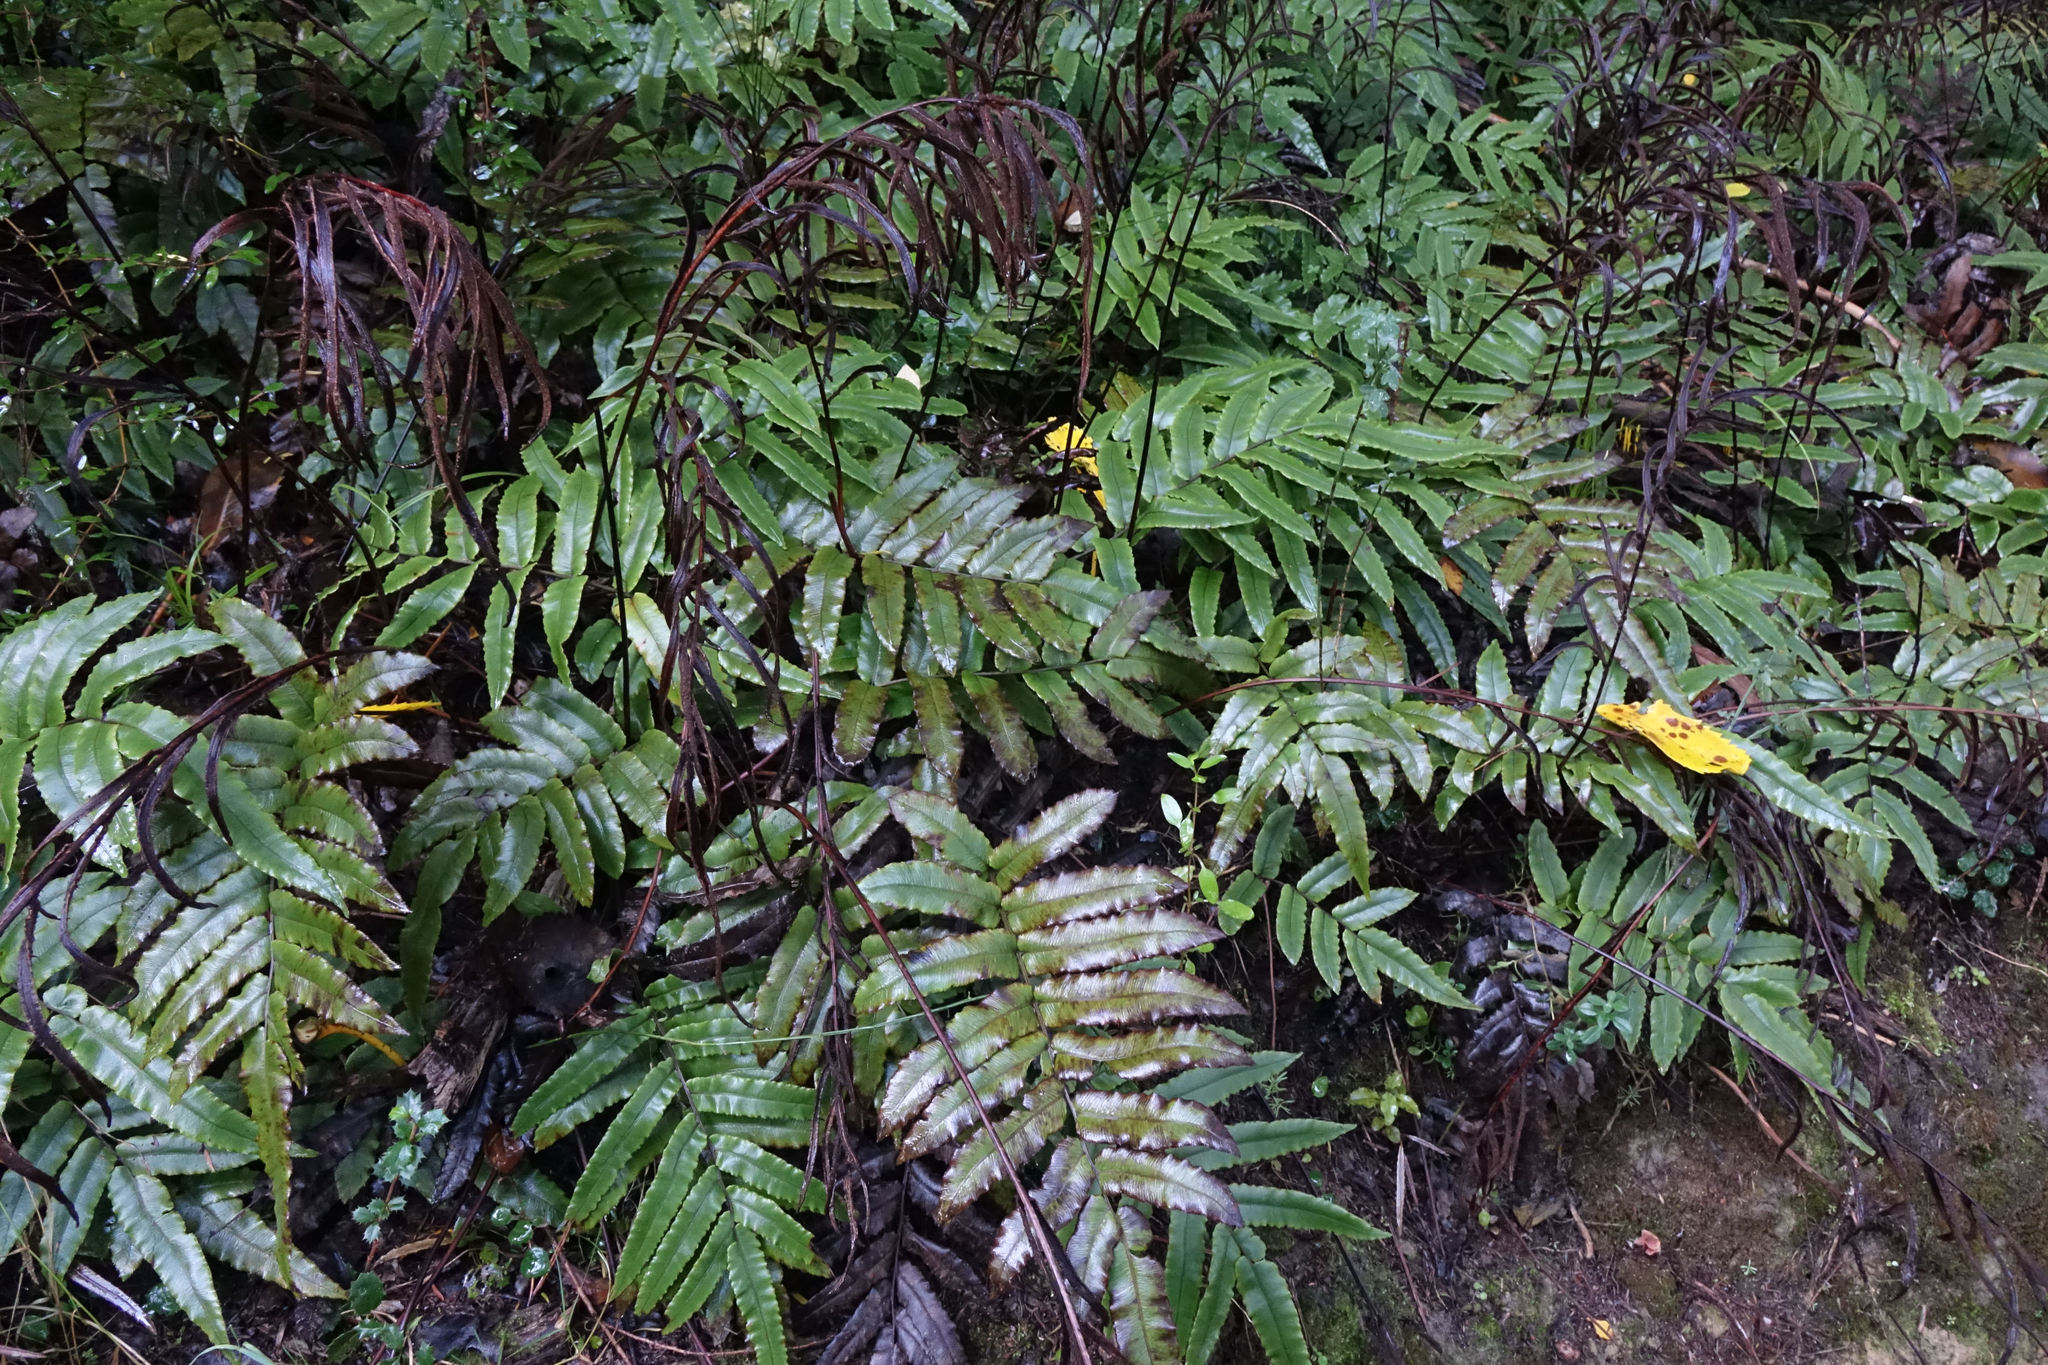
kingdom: Plantae
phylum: Tracheophyta
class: Polypodiopsida
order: Polypodiales
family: Blechnaceae
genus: Parablechnum
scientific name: Parablechnum procerum
